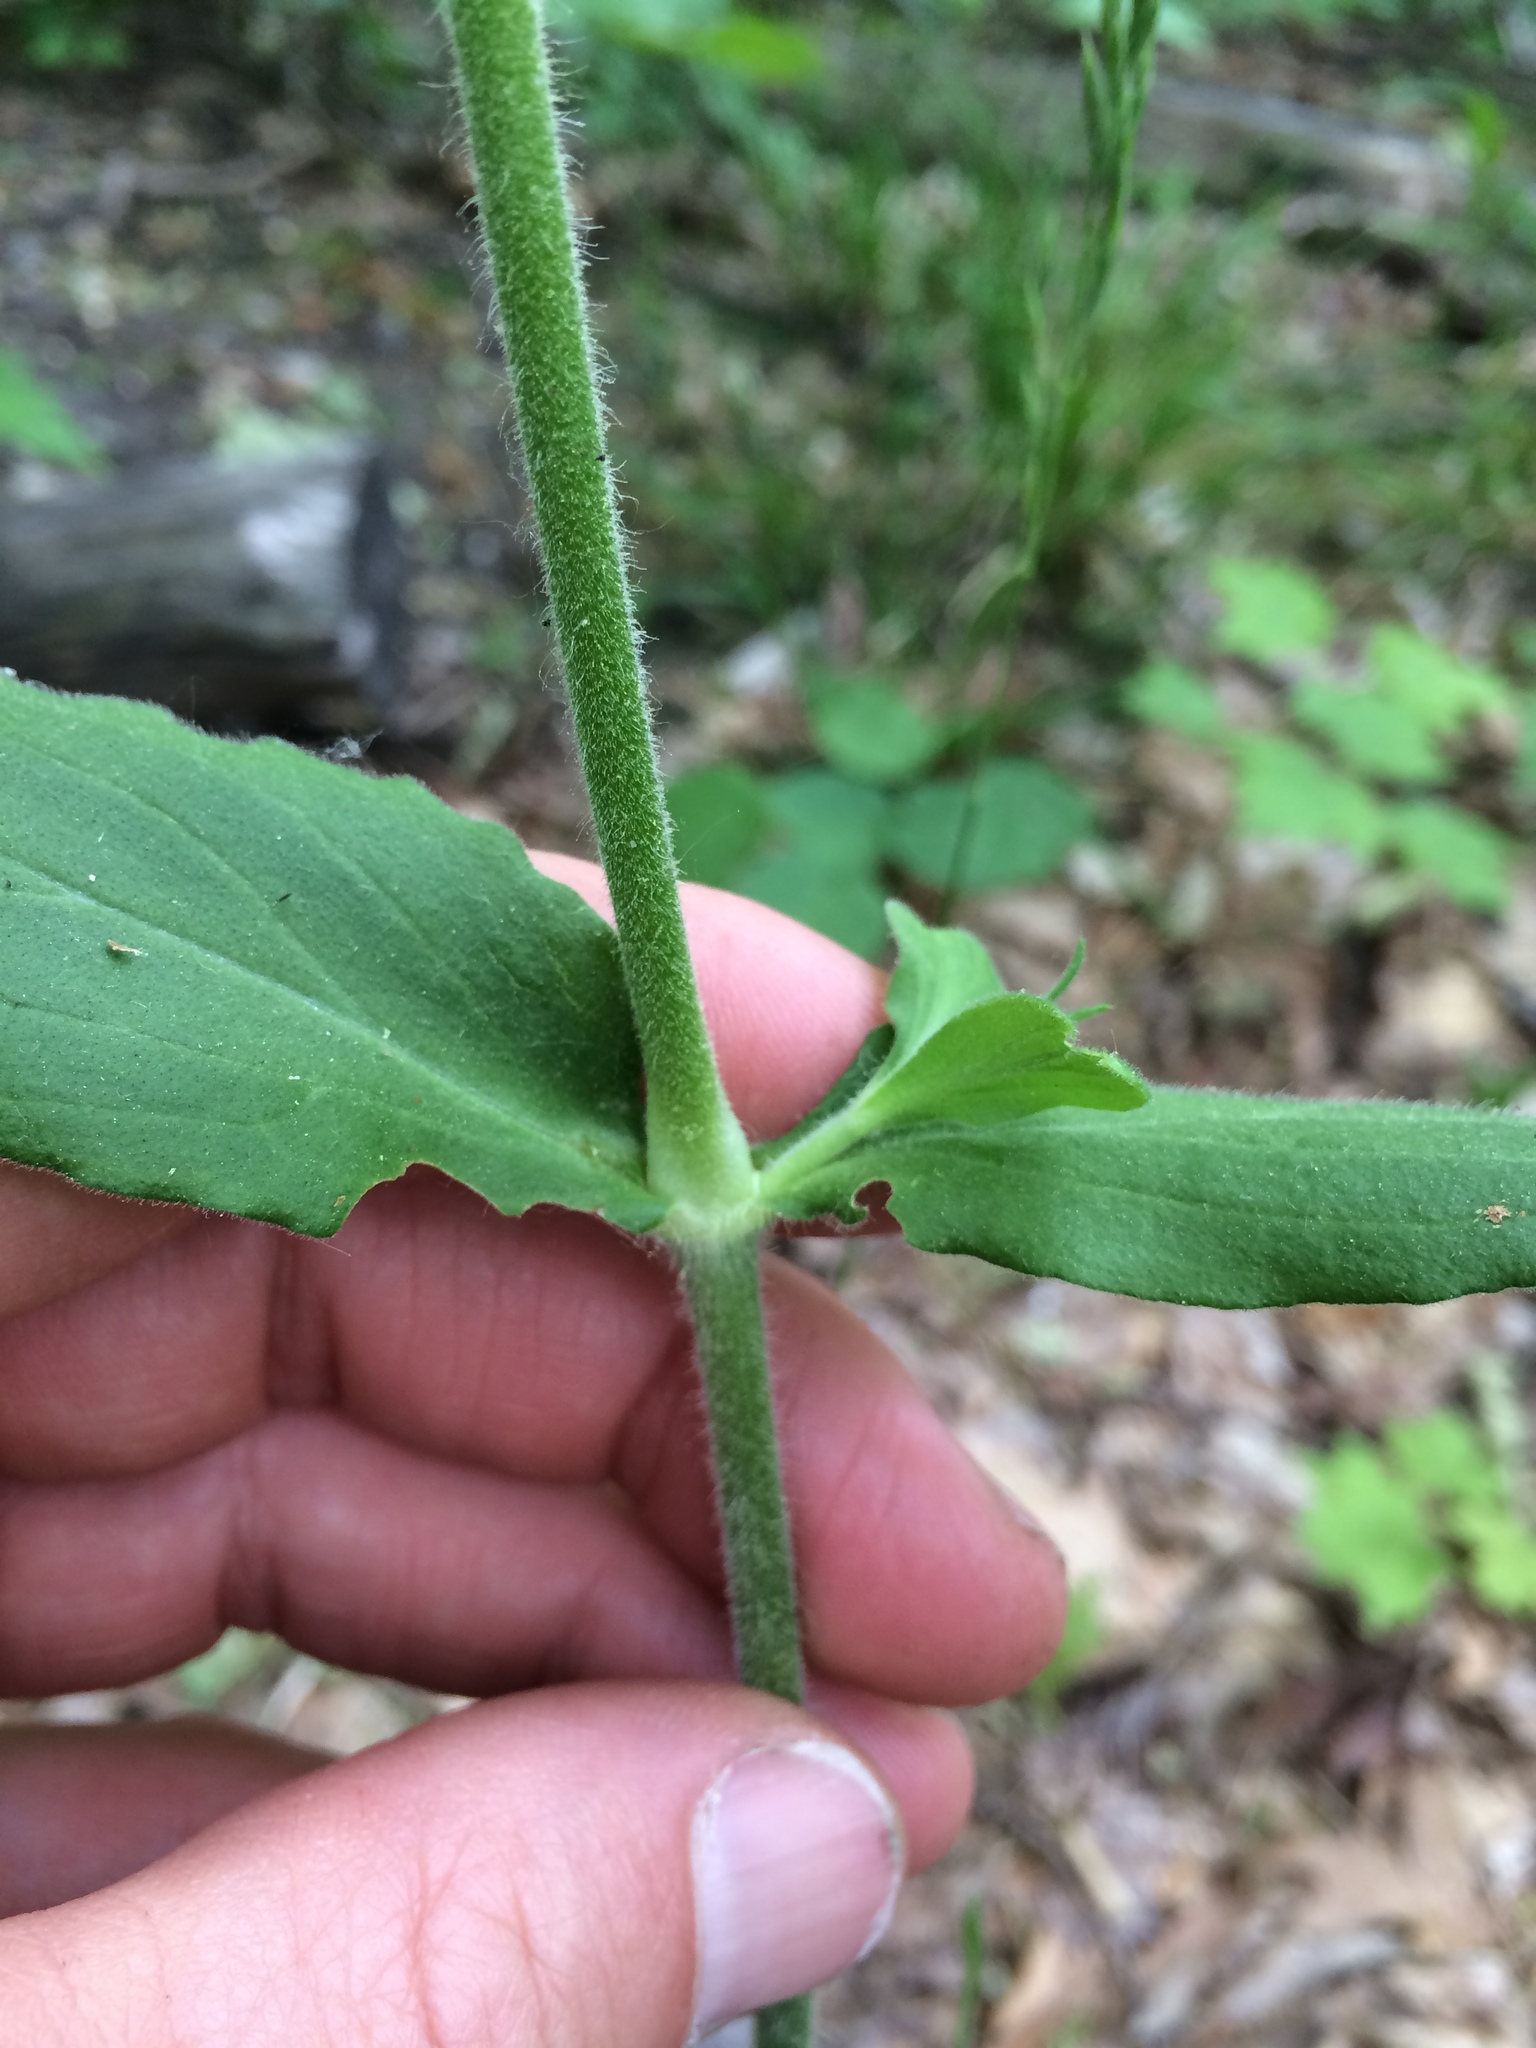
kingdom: Plantae
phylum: Tracheophyta
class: Magnoliopsida
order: Caryophyllales
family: Caryophyllaceae
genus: Silene
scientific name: Silene latifolia
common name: White campion
